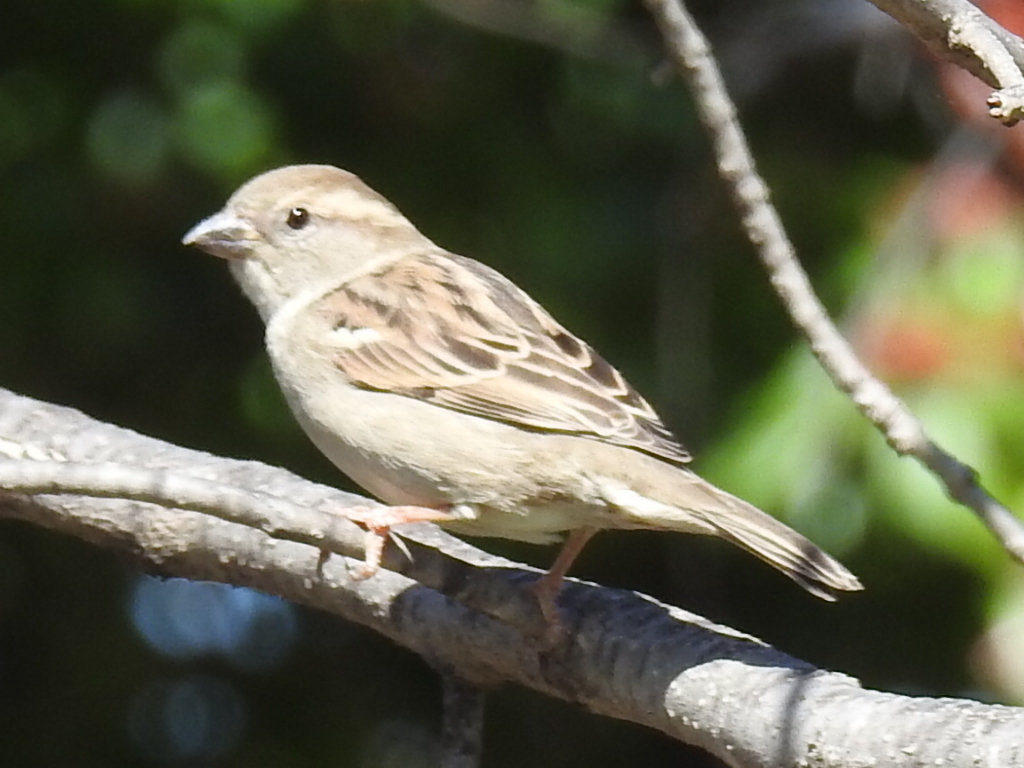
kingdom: Animalia
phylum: Chordata
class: Aves
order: Passeriformes
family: Passeridae
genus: Passer
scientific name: Passer domesticus
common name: House sparrow
